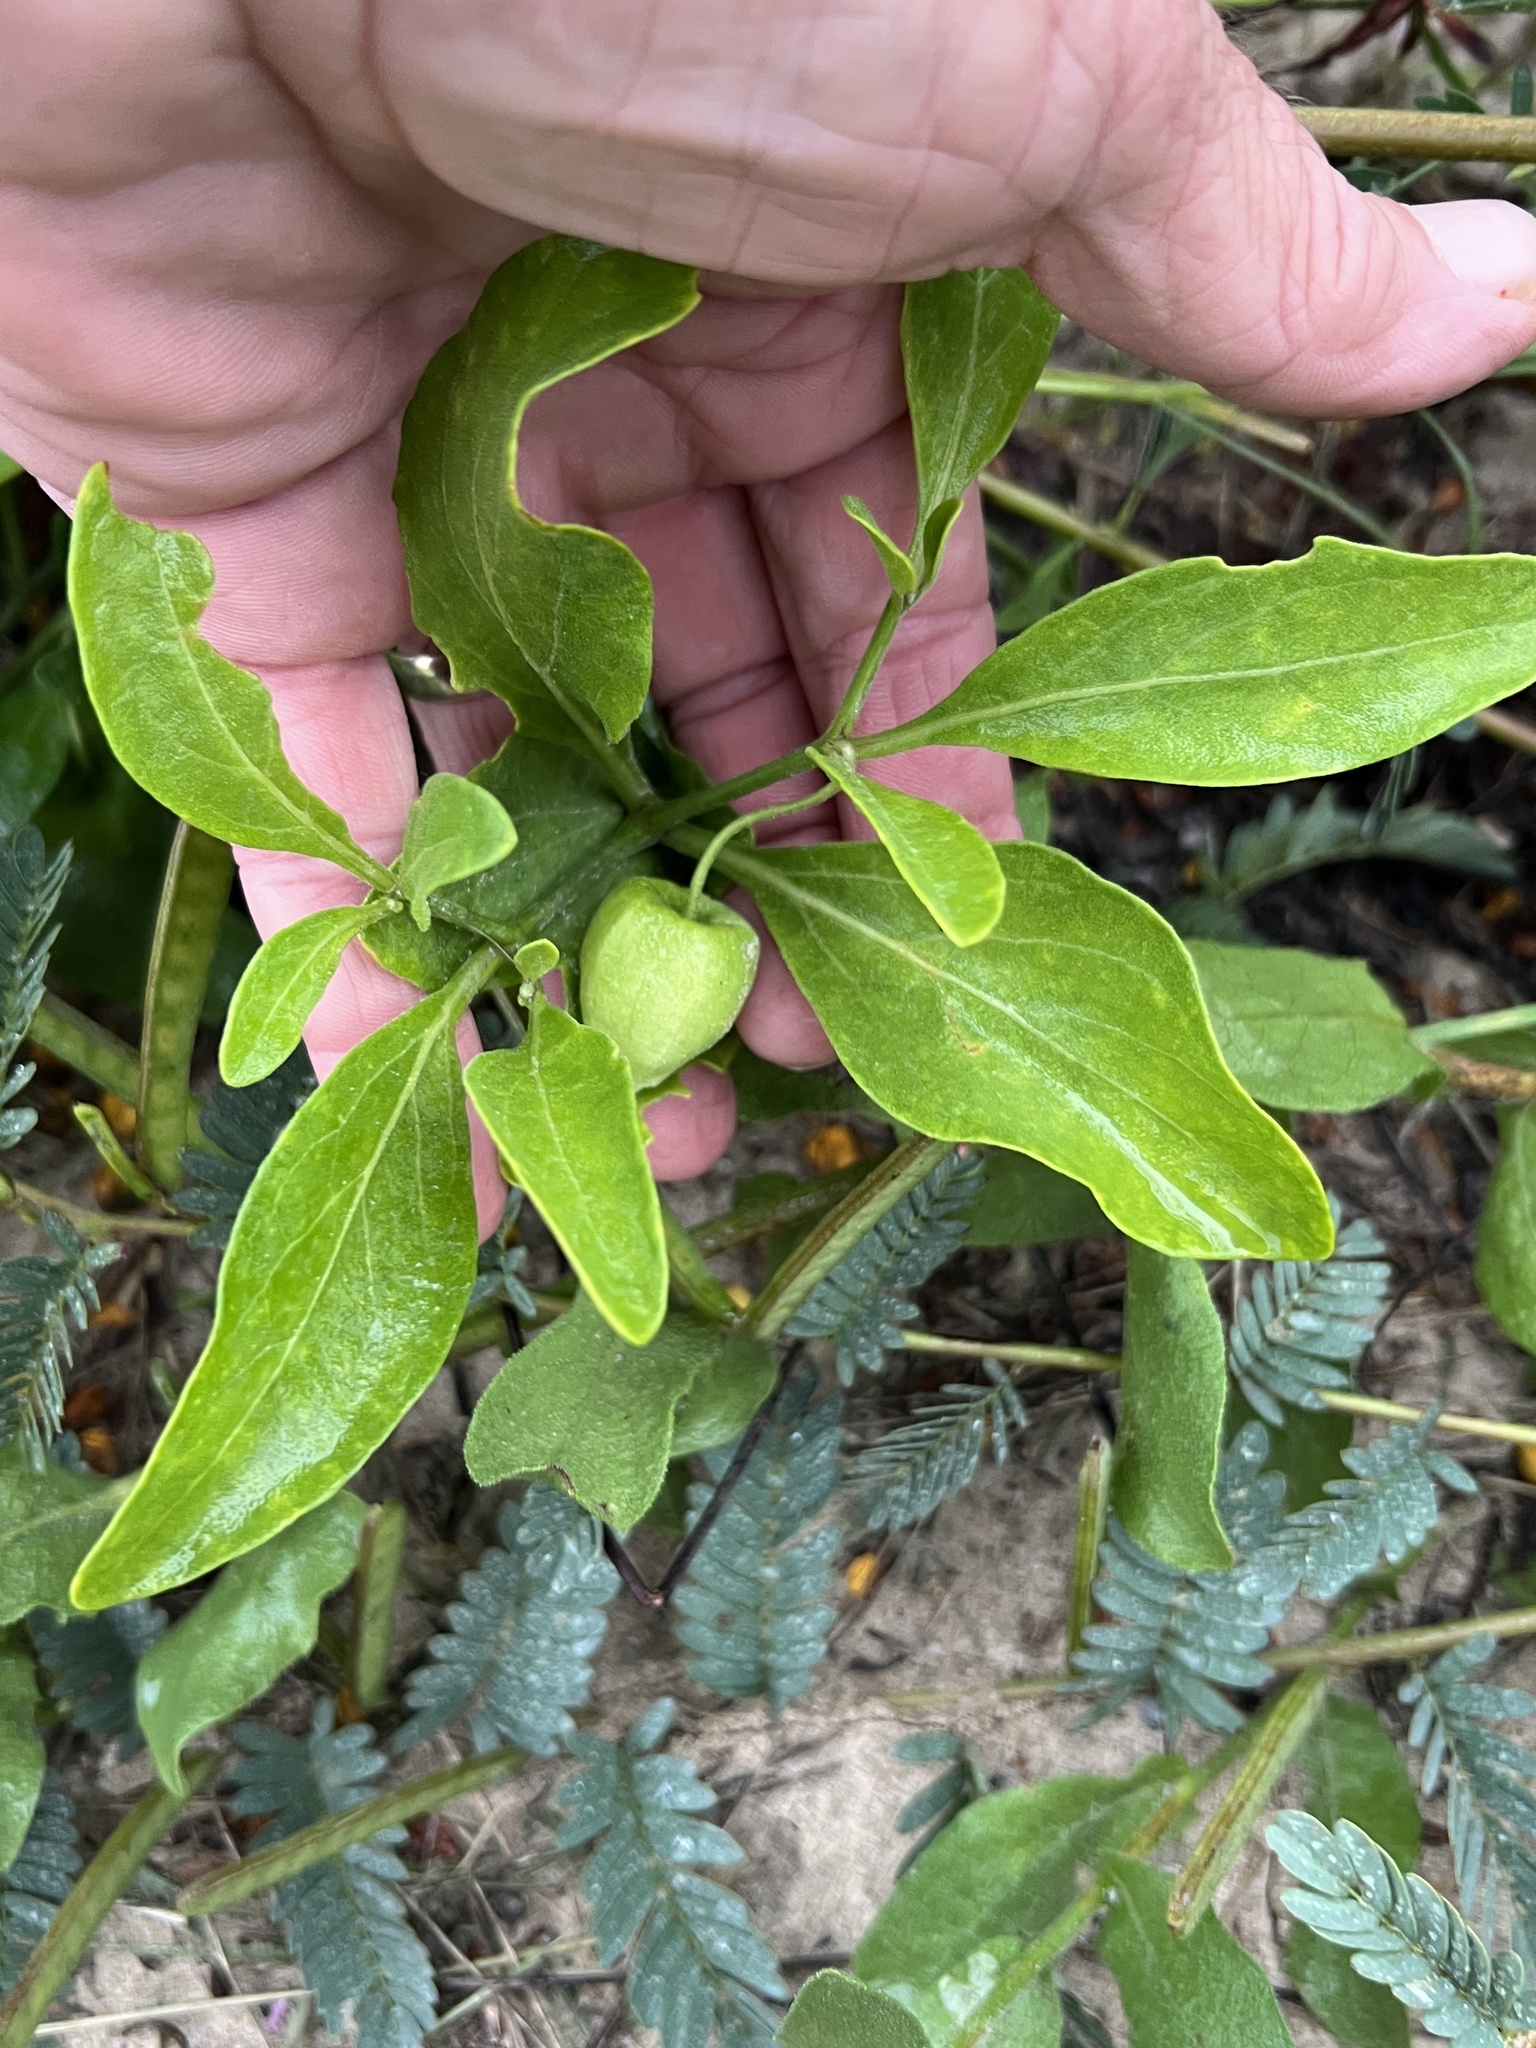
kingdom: Plantae
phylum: Tracheophyta
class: Magnoliopsida
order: Solanales
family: Solanaceae
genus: Physalis
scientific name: Physalis cinerascens
